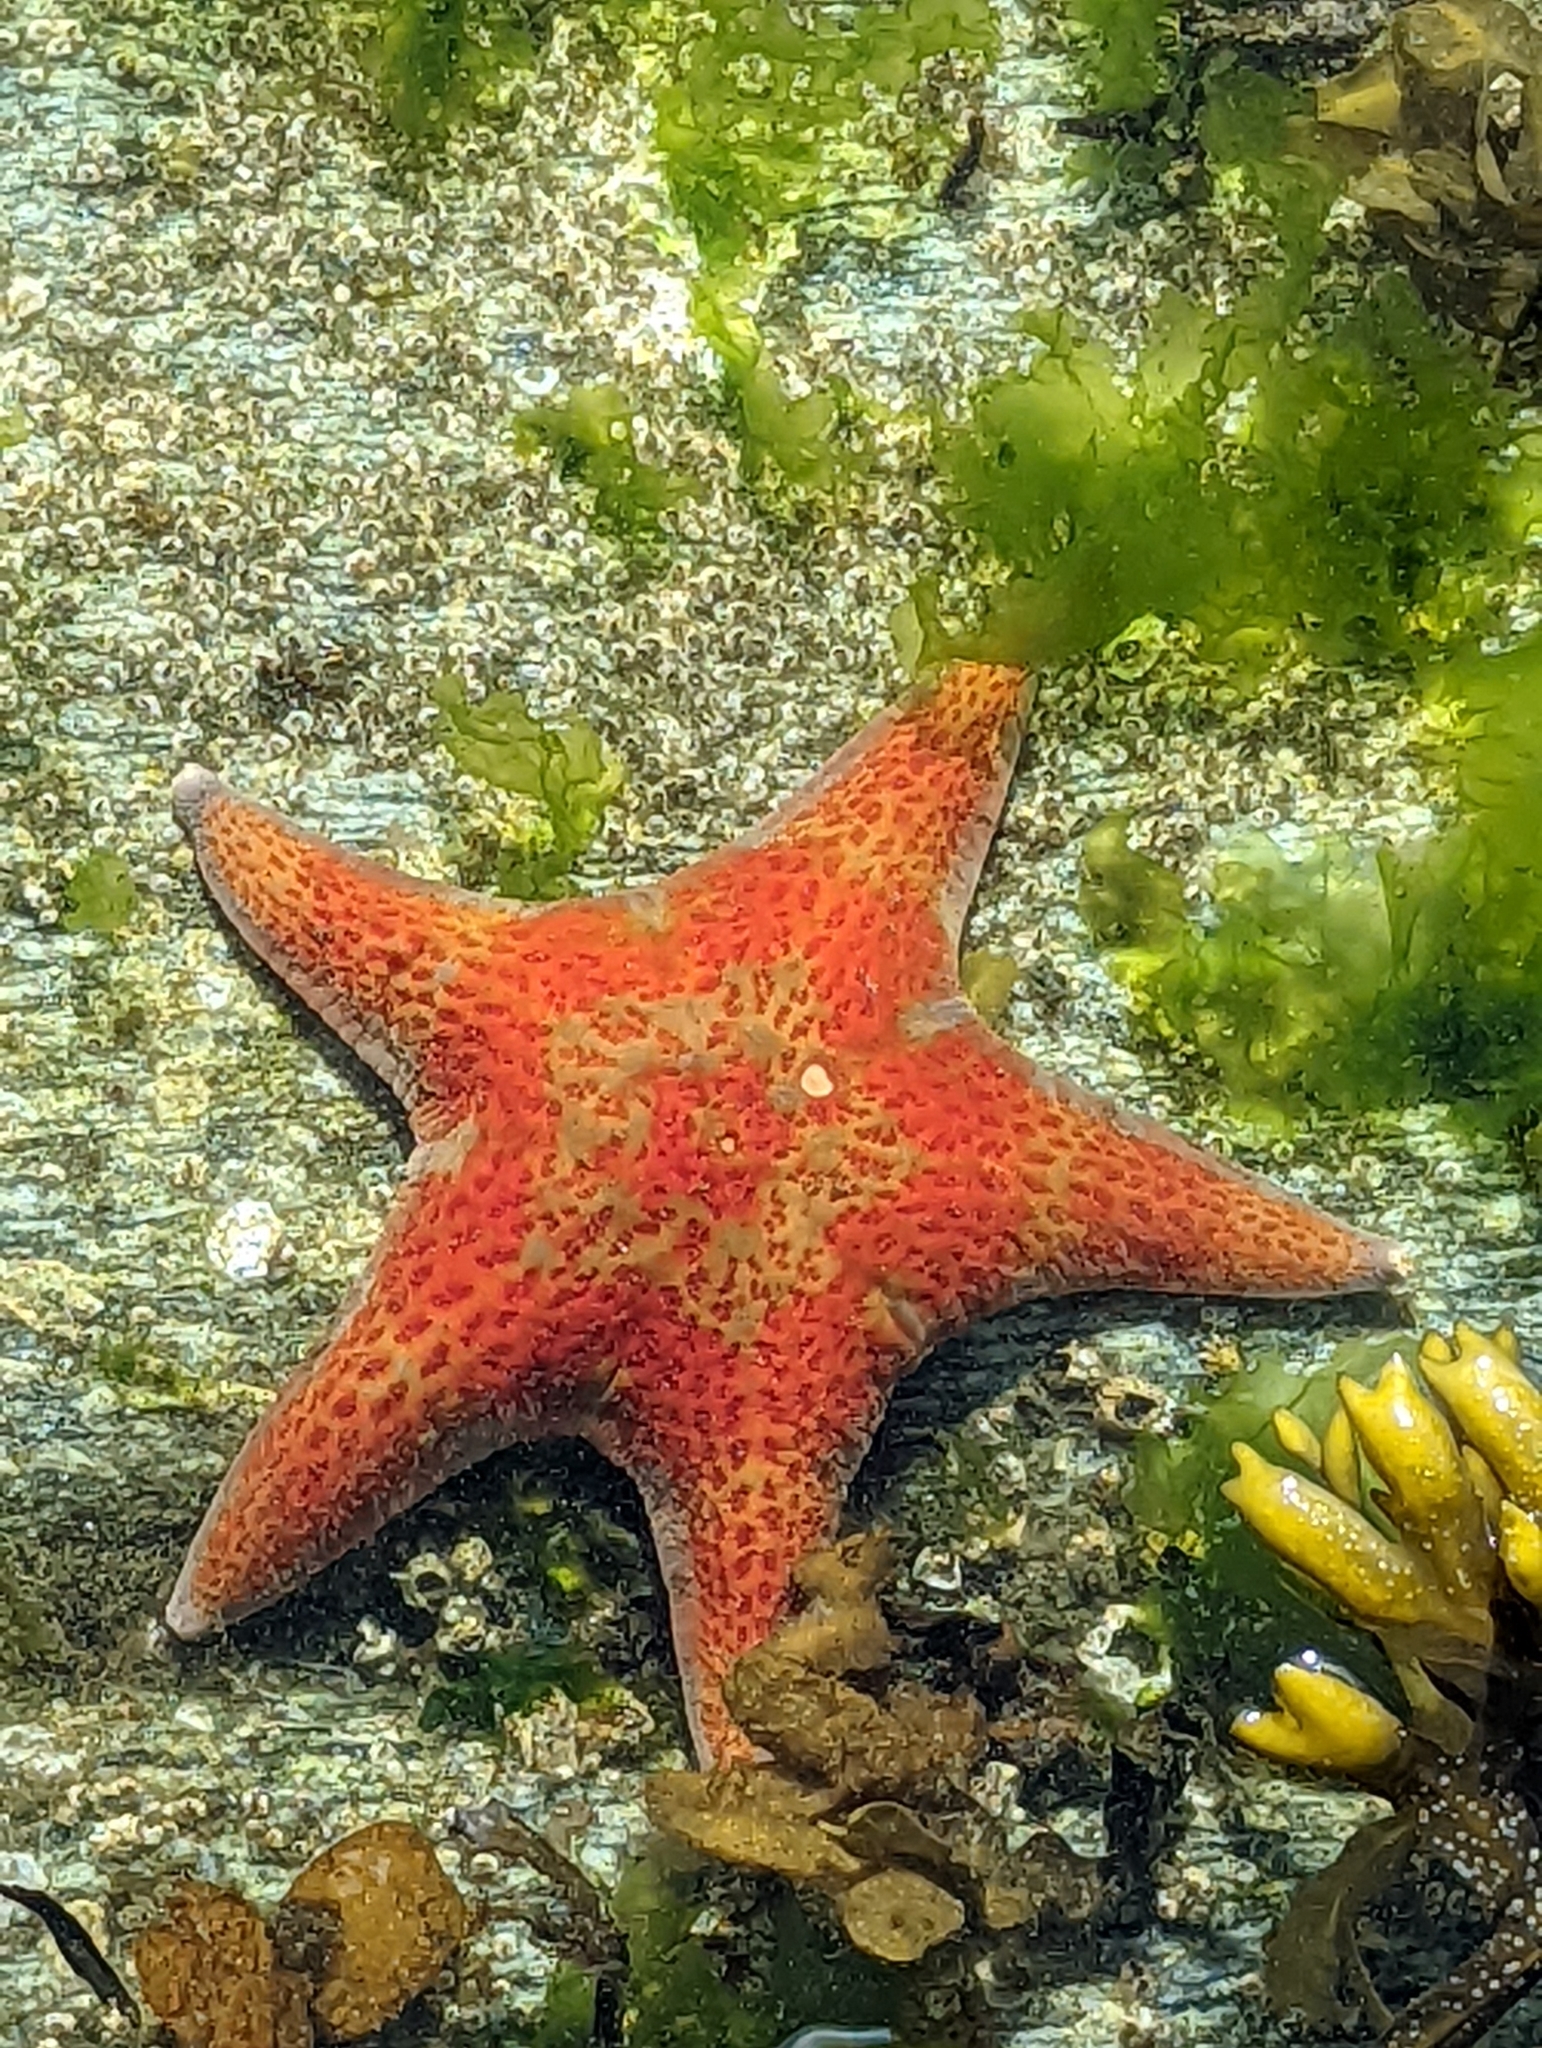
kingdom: Animalia
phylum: Echinodermata
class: Asteroidea
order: Valvatida
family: Asteropseidae
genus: Dermasterias
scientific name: Dermasterias imbricata
